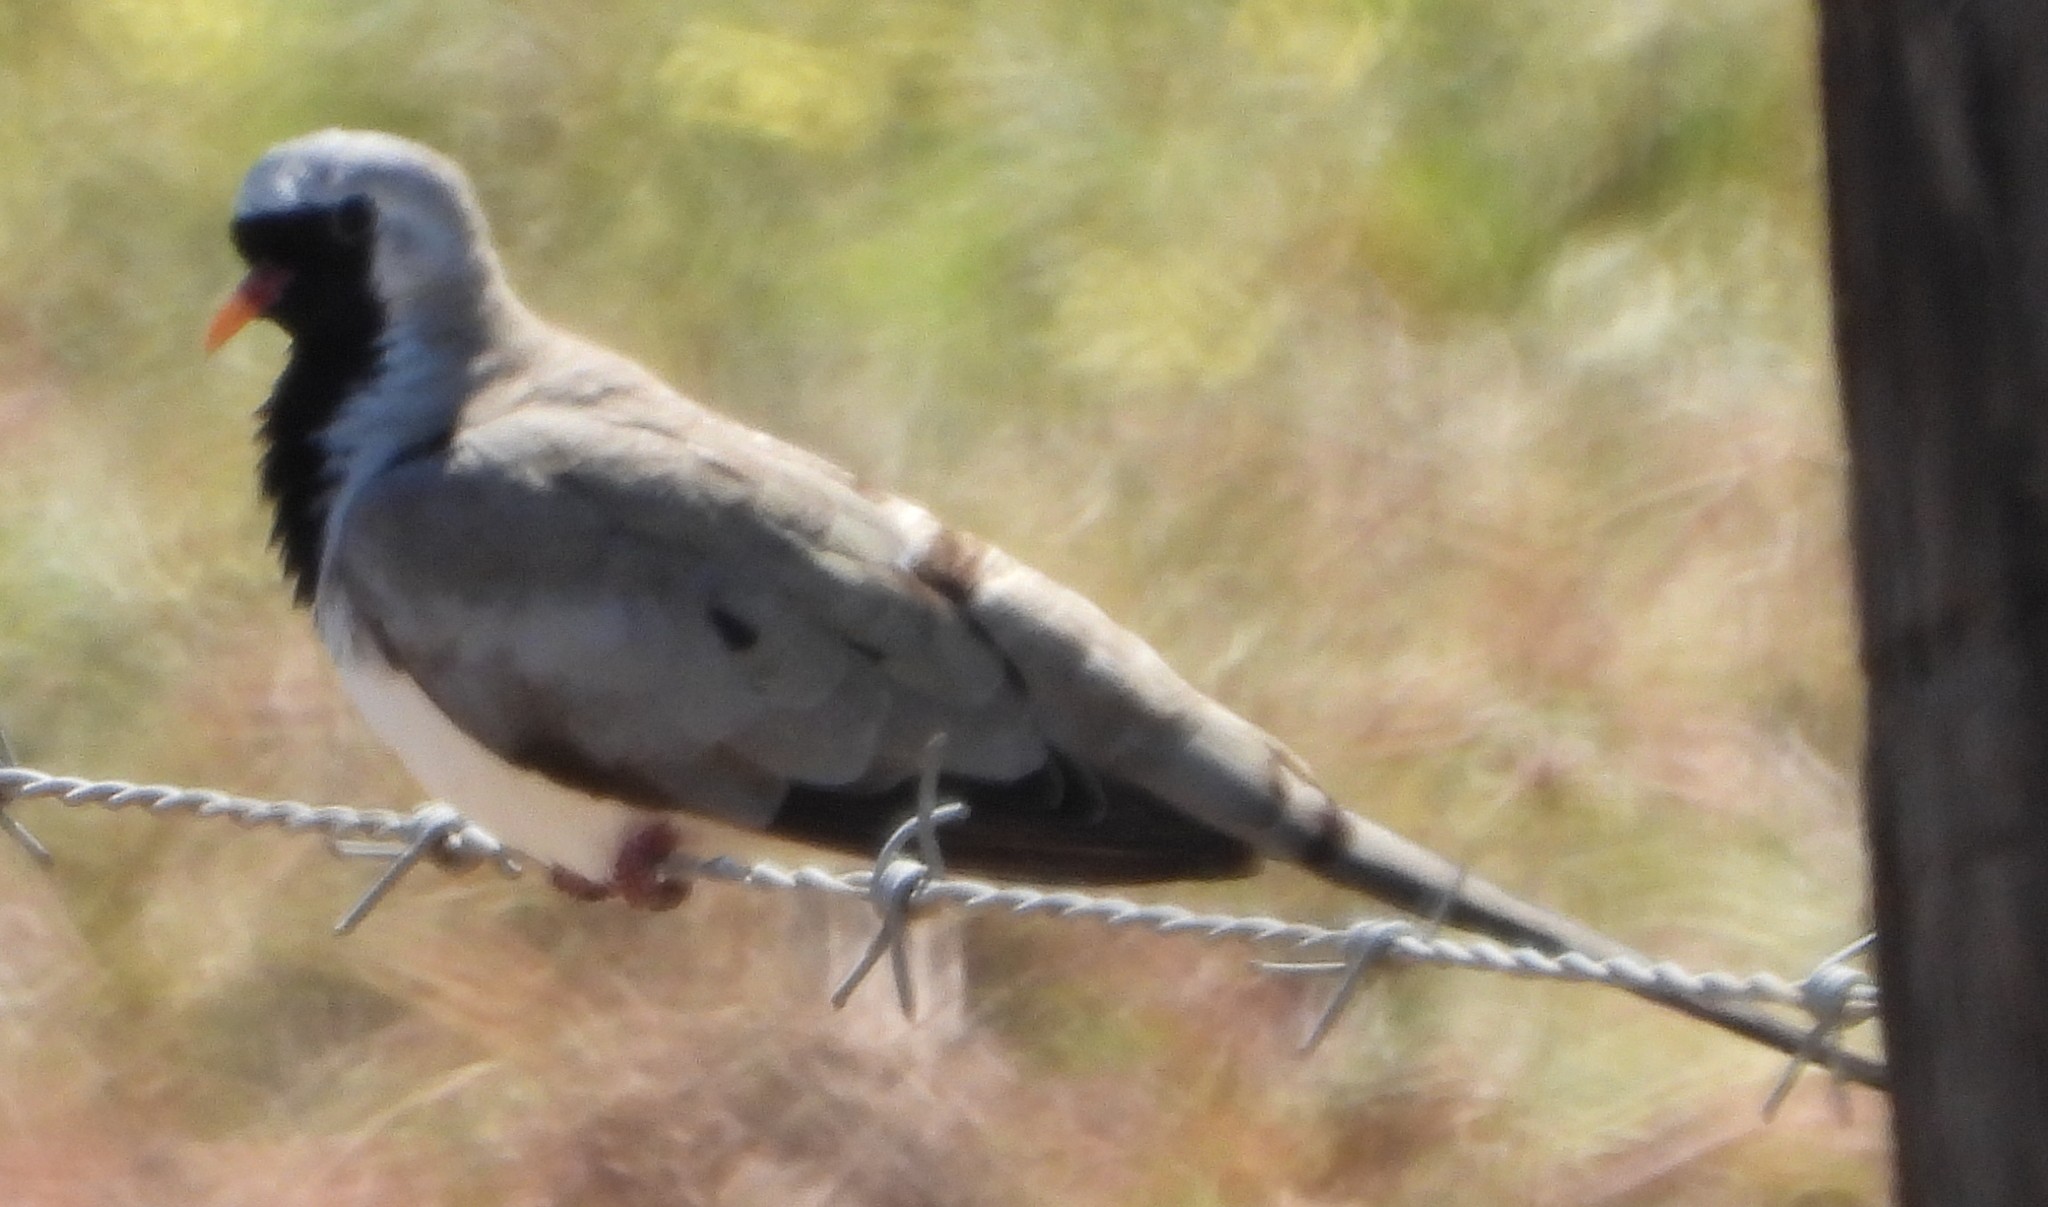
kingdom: Animalia
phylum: Chordata
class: Aves
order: Columbiformes
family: Columbidae
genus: Oena
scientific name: Oena capensis
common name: Namaqua dove
